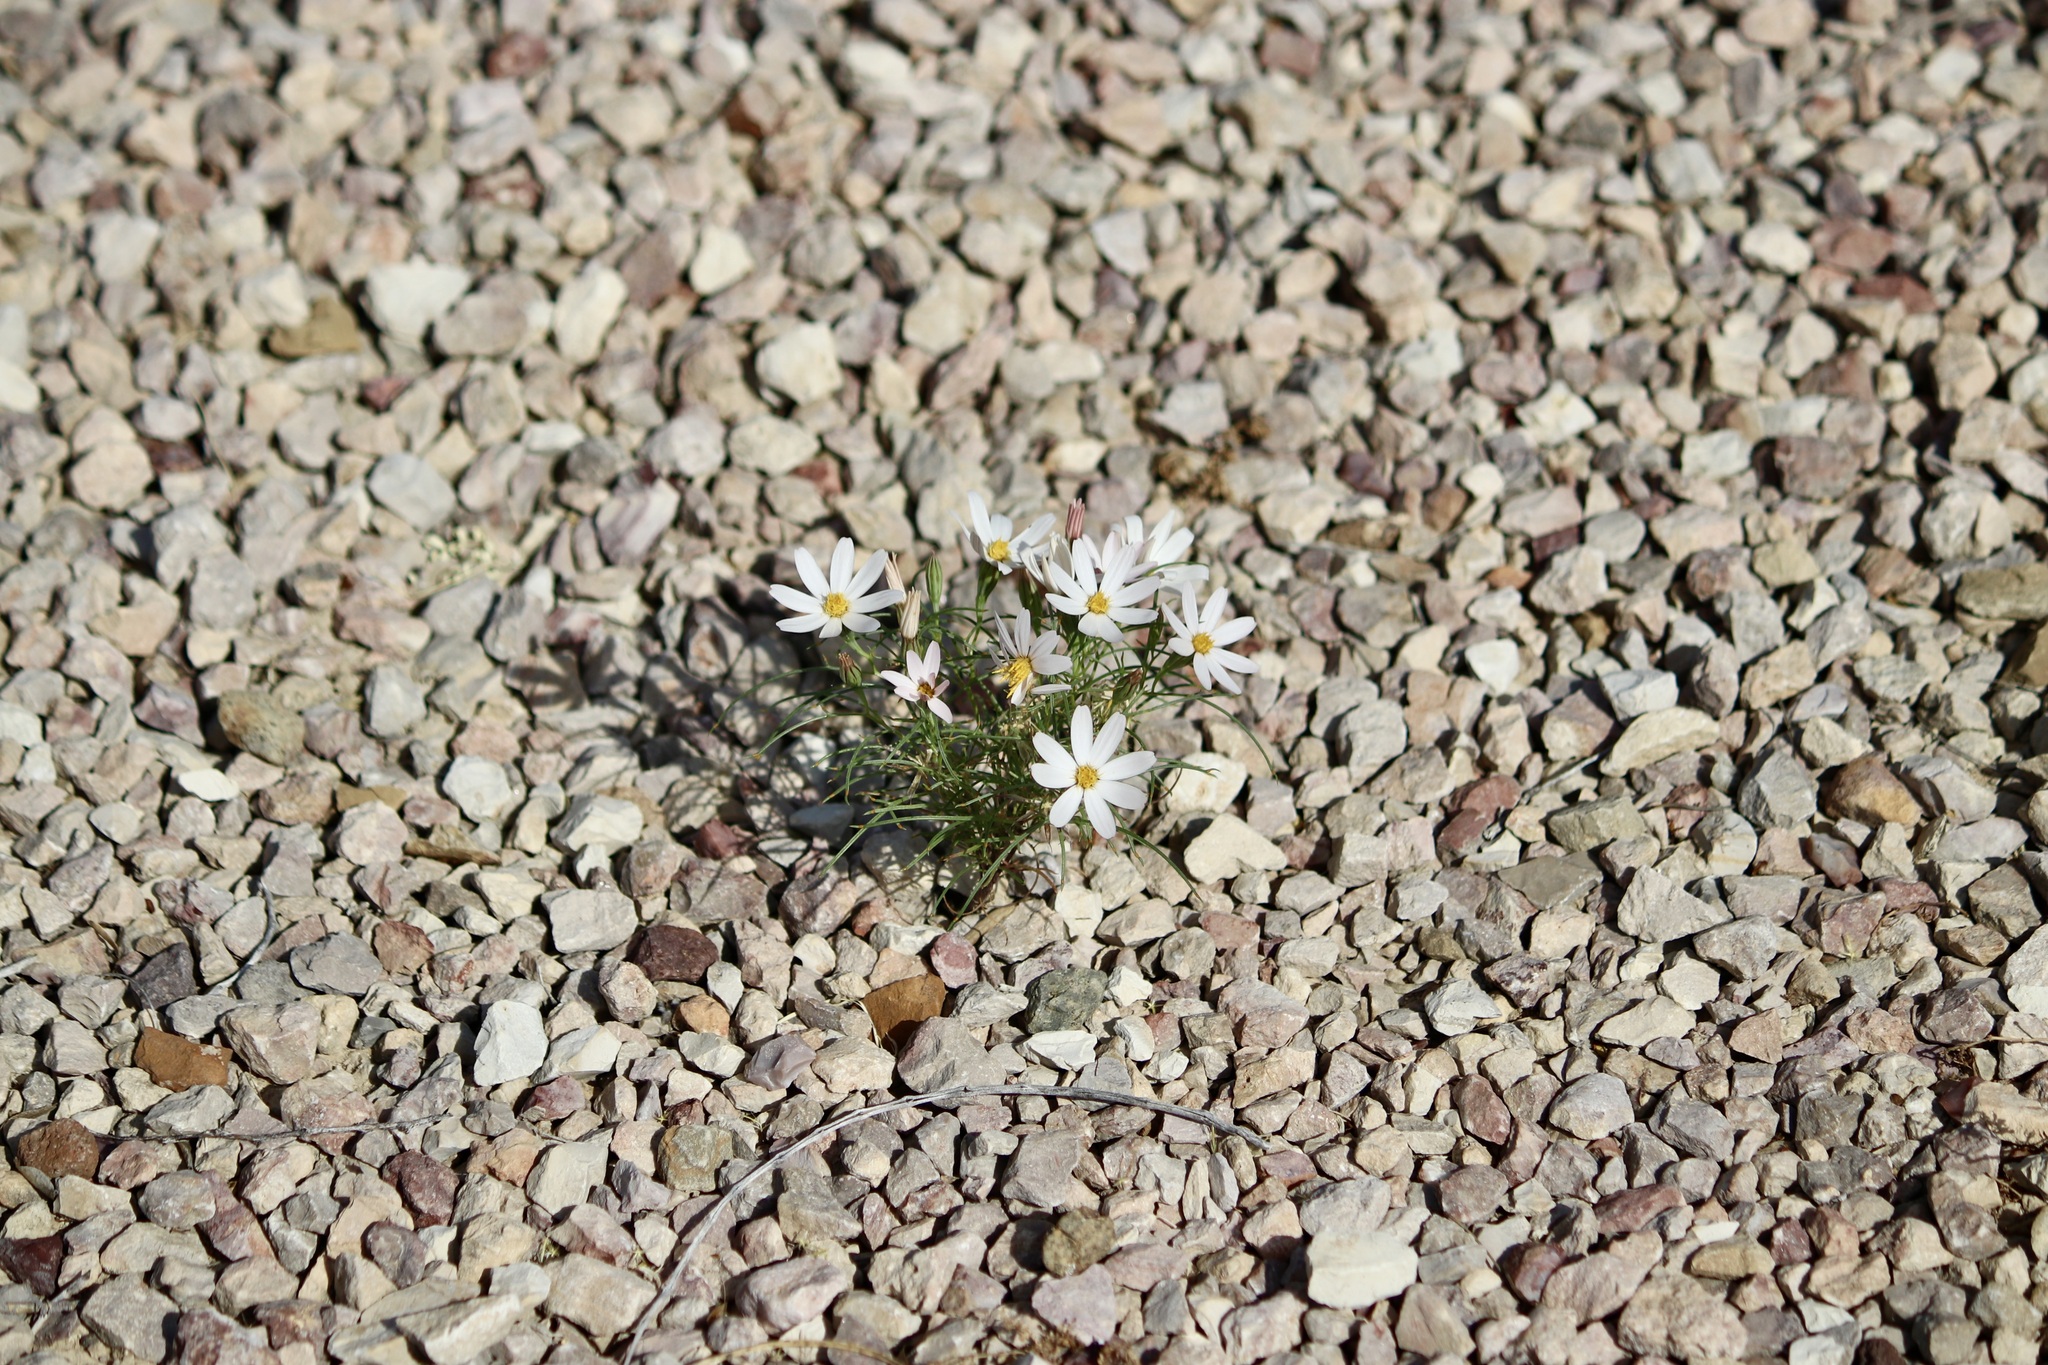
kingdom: Plantae
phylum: Tracheophyta
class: Magnoliopsida
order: Asterales
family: Asteraceae
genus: Nicolletia
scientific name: Nicolletia edwardsii
